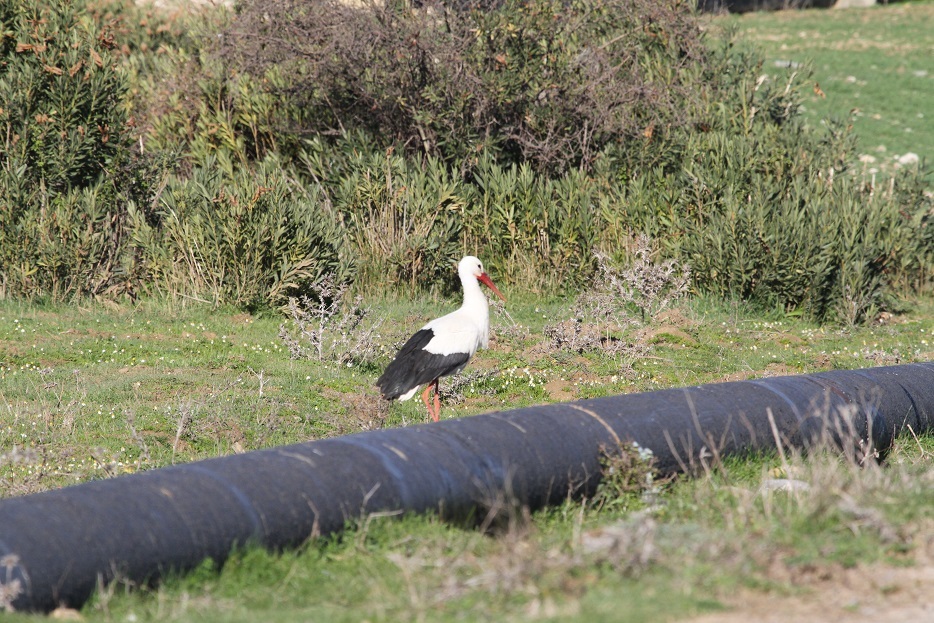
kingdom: Animalia
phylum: Chordata
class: Aves
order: Ciconiiformes
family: Ciconiidae
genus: Ciconia
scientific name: Ciconia ciconia
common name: White stork
